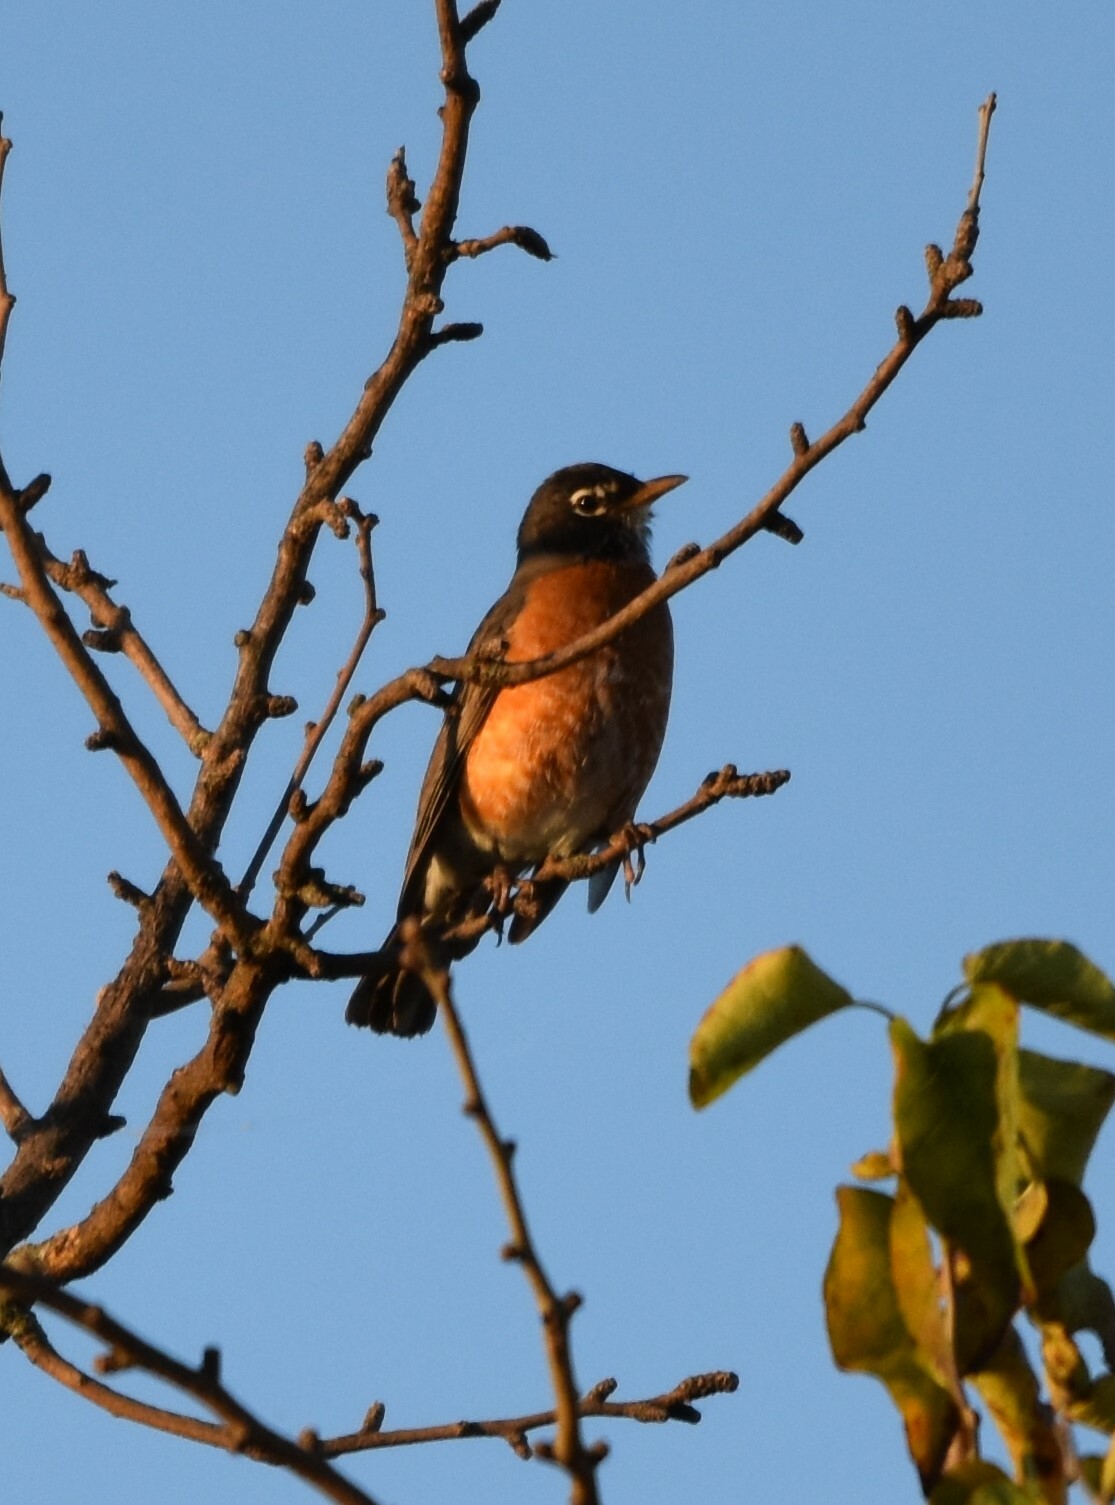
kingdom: Animalia
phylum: Chordata
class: Aves
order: Passeriformes
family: Turdidae
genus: Turdus
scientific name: Turdus migratorius
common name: American robin
